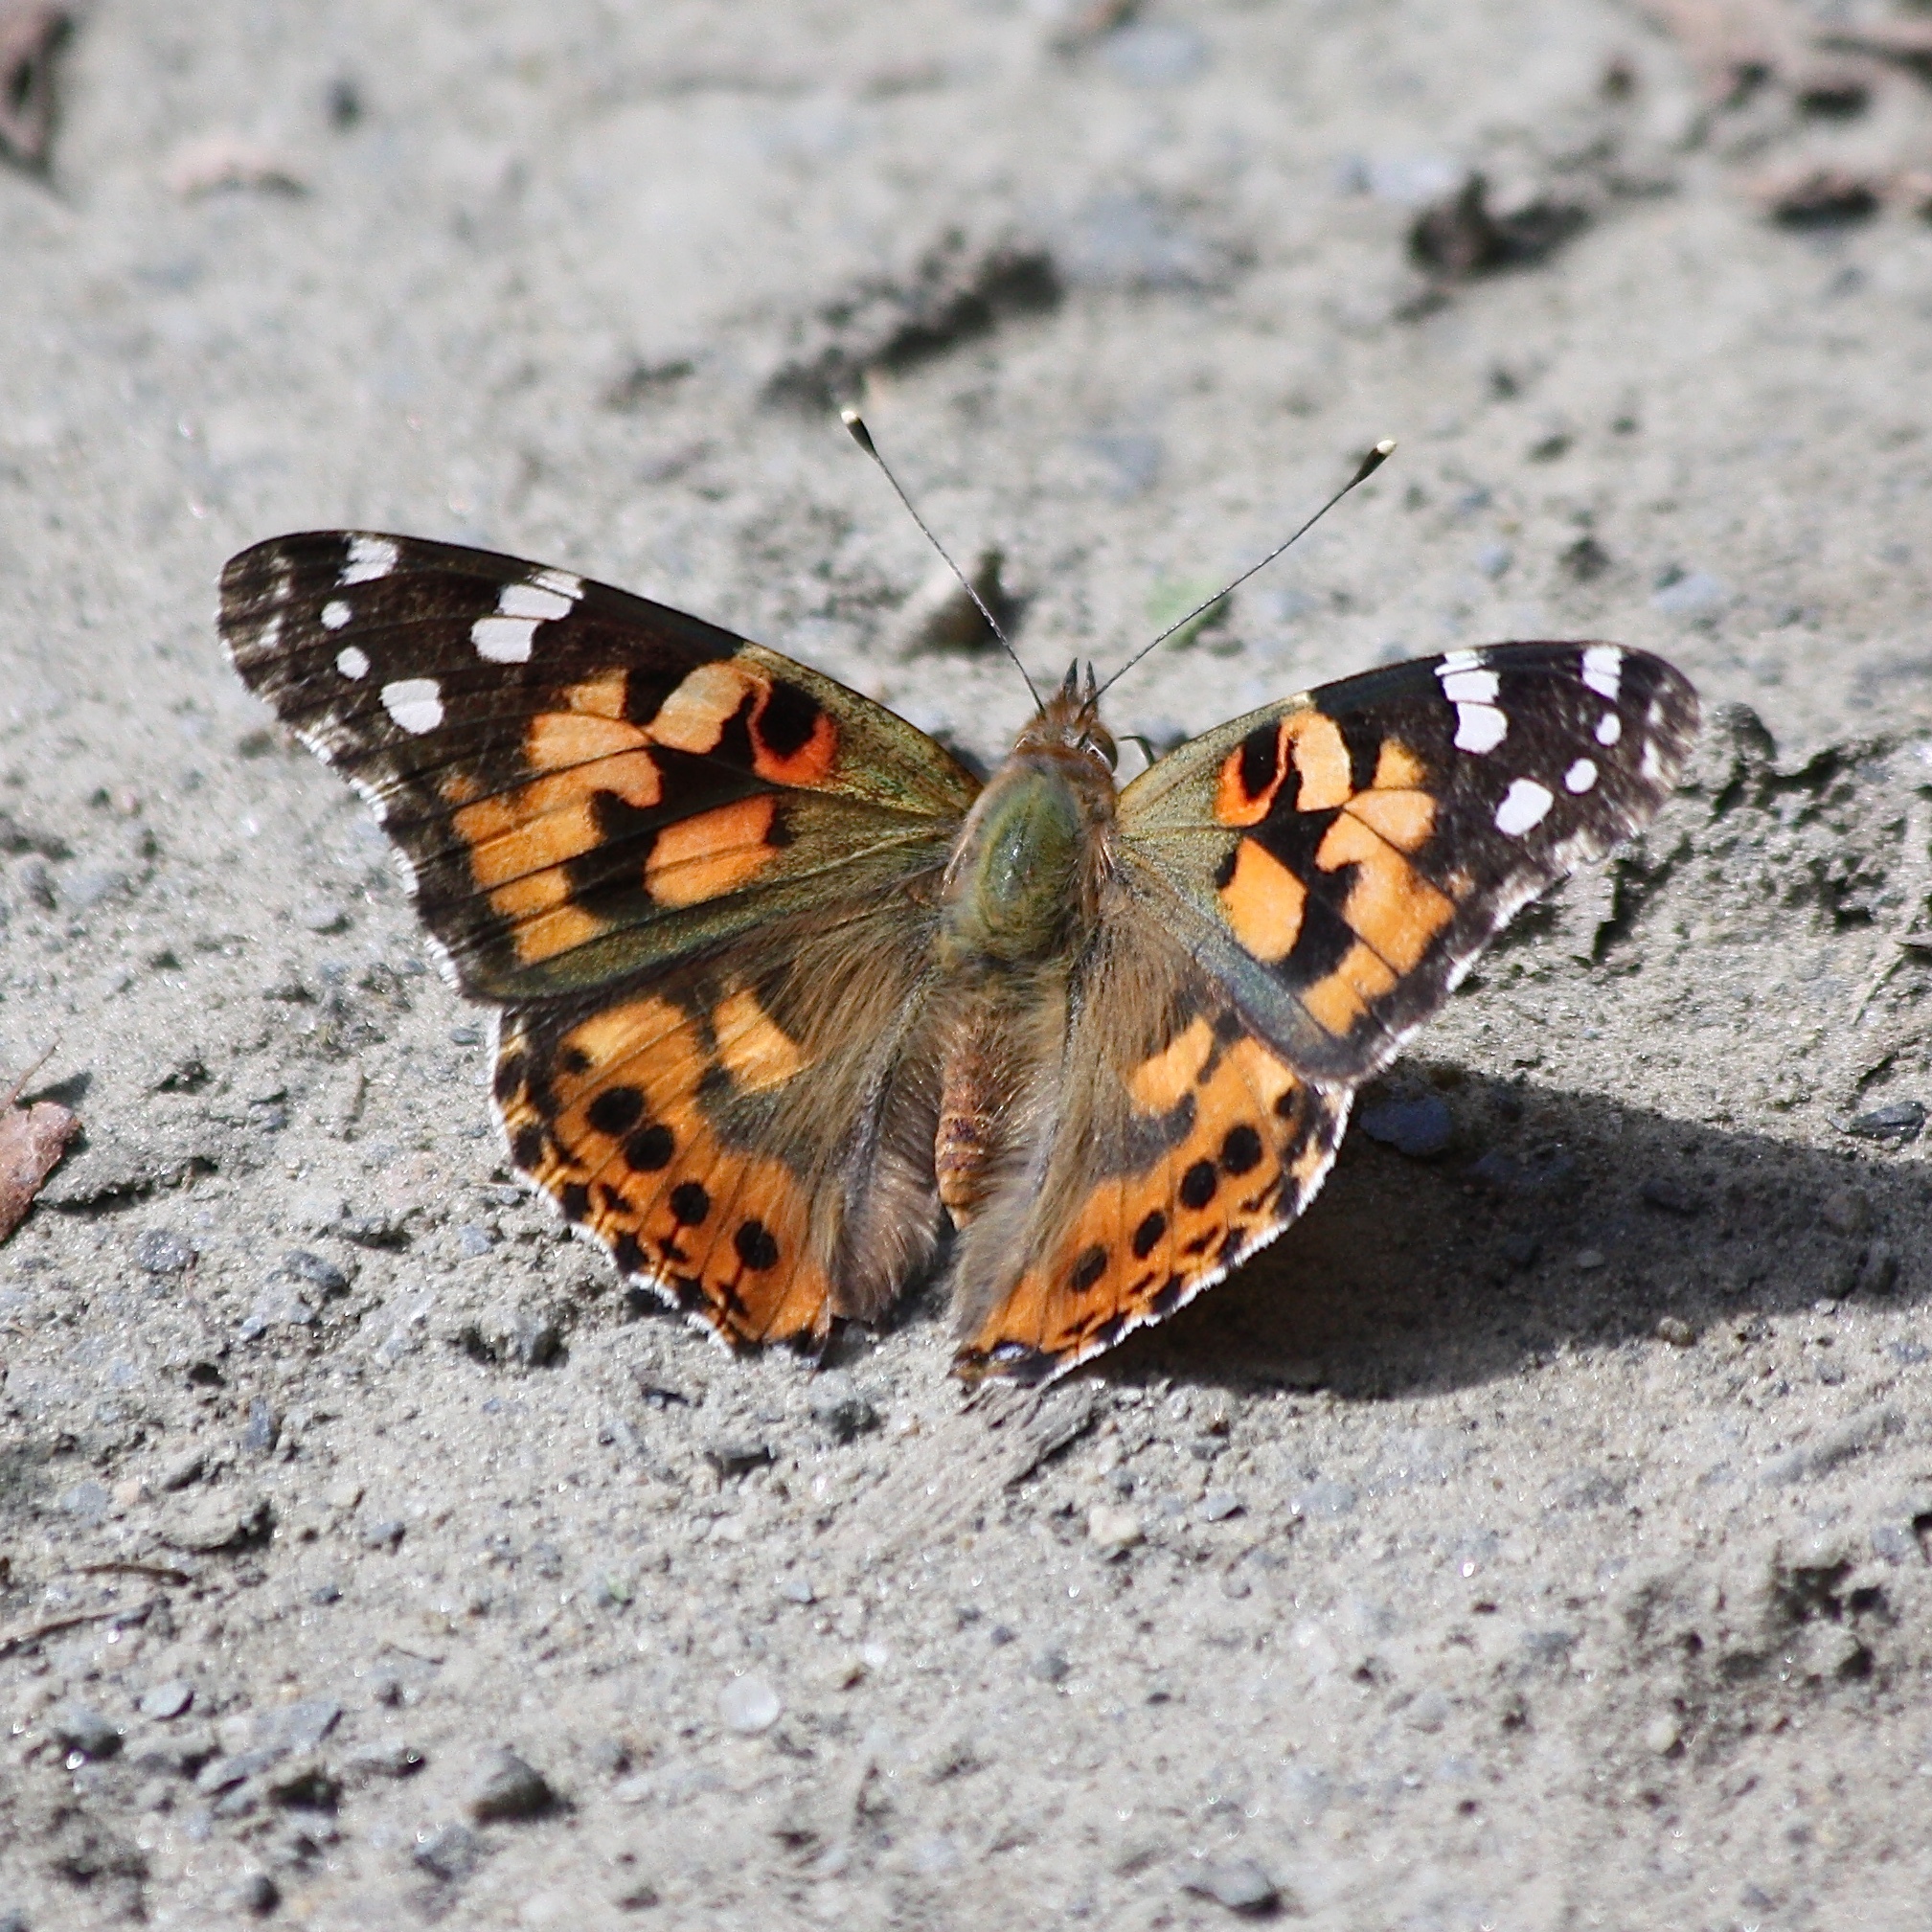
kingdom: Animalia
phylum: Arthropoda
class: Insecta
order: Lepidoptera
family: Nymphalidae
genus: Vanessa
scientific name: Vanessa cardui
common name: Painted lady
